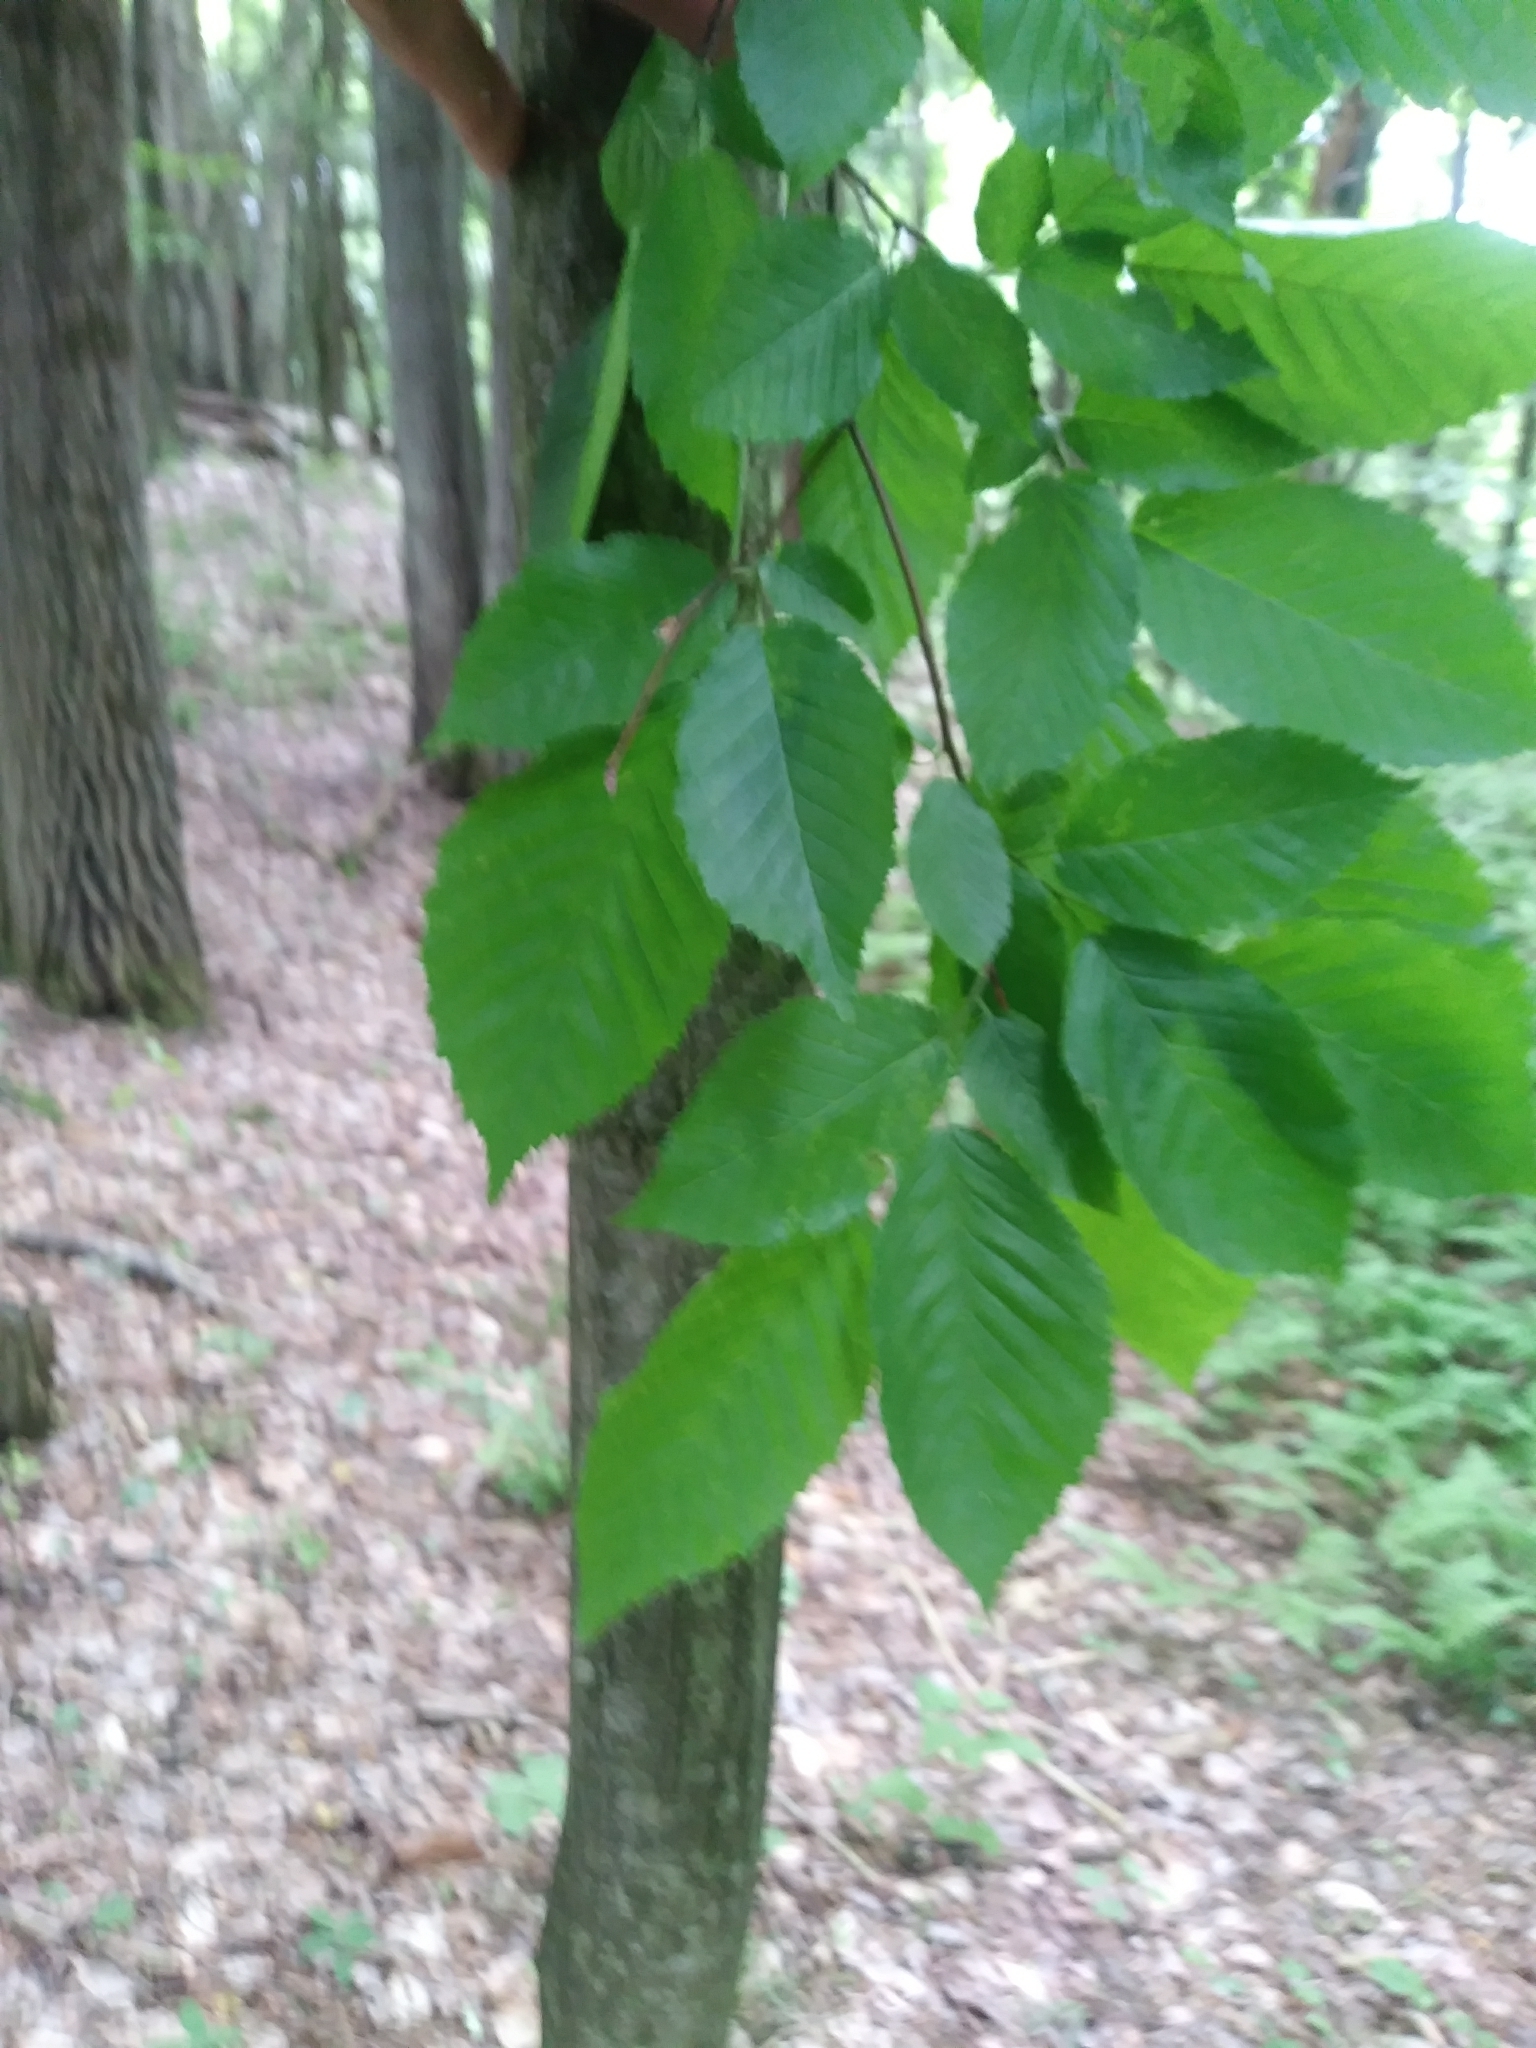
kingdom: Plantae
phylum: Tracheophyta
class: Magnoliopsida
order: Fagales
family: Betulaceae
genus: Carpinus
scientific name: Carpinus caroliniana
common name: American hornbeam
